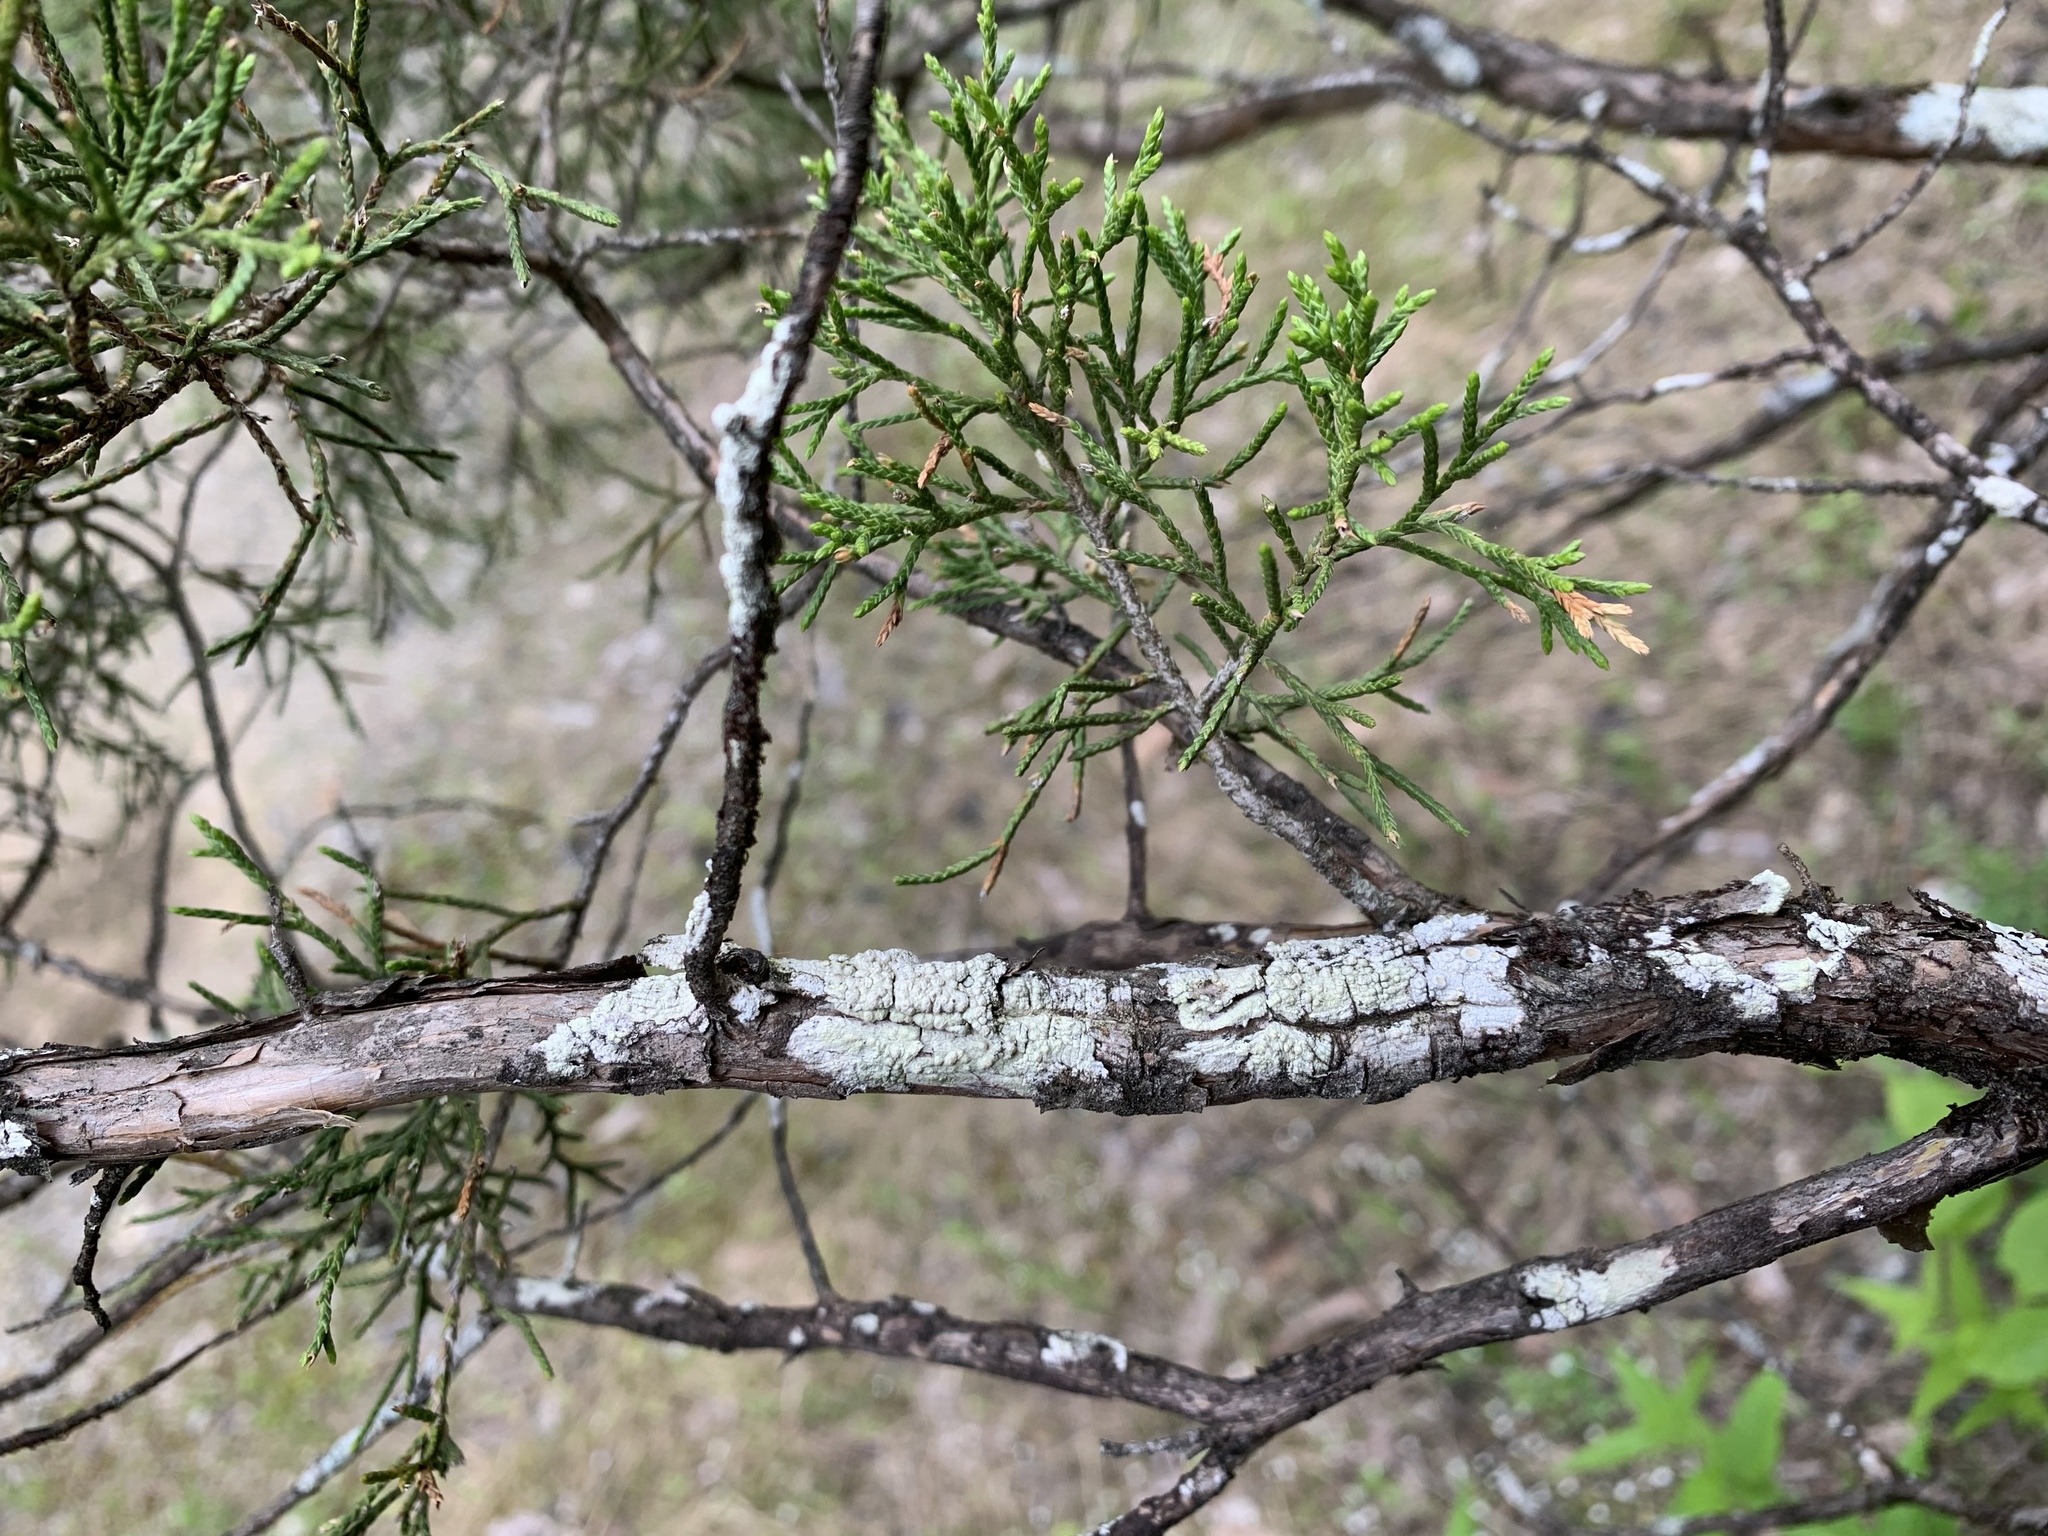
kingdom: Fungi
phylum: Ascomycota
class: Lecanoromycetes
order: Pertusariales
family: Pertusariaceae
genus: Pertusaria
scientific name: Pertusaria texana
